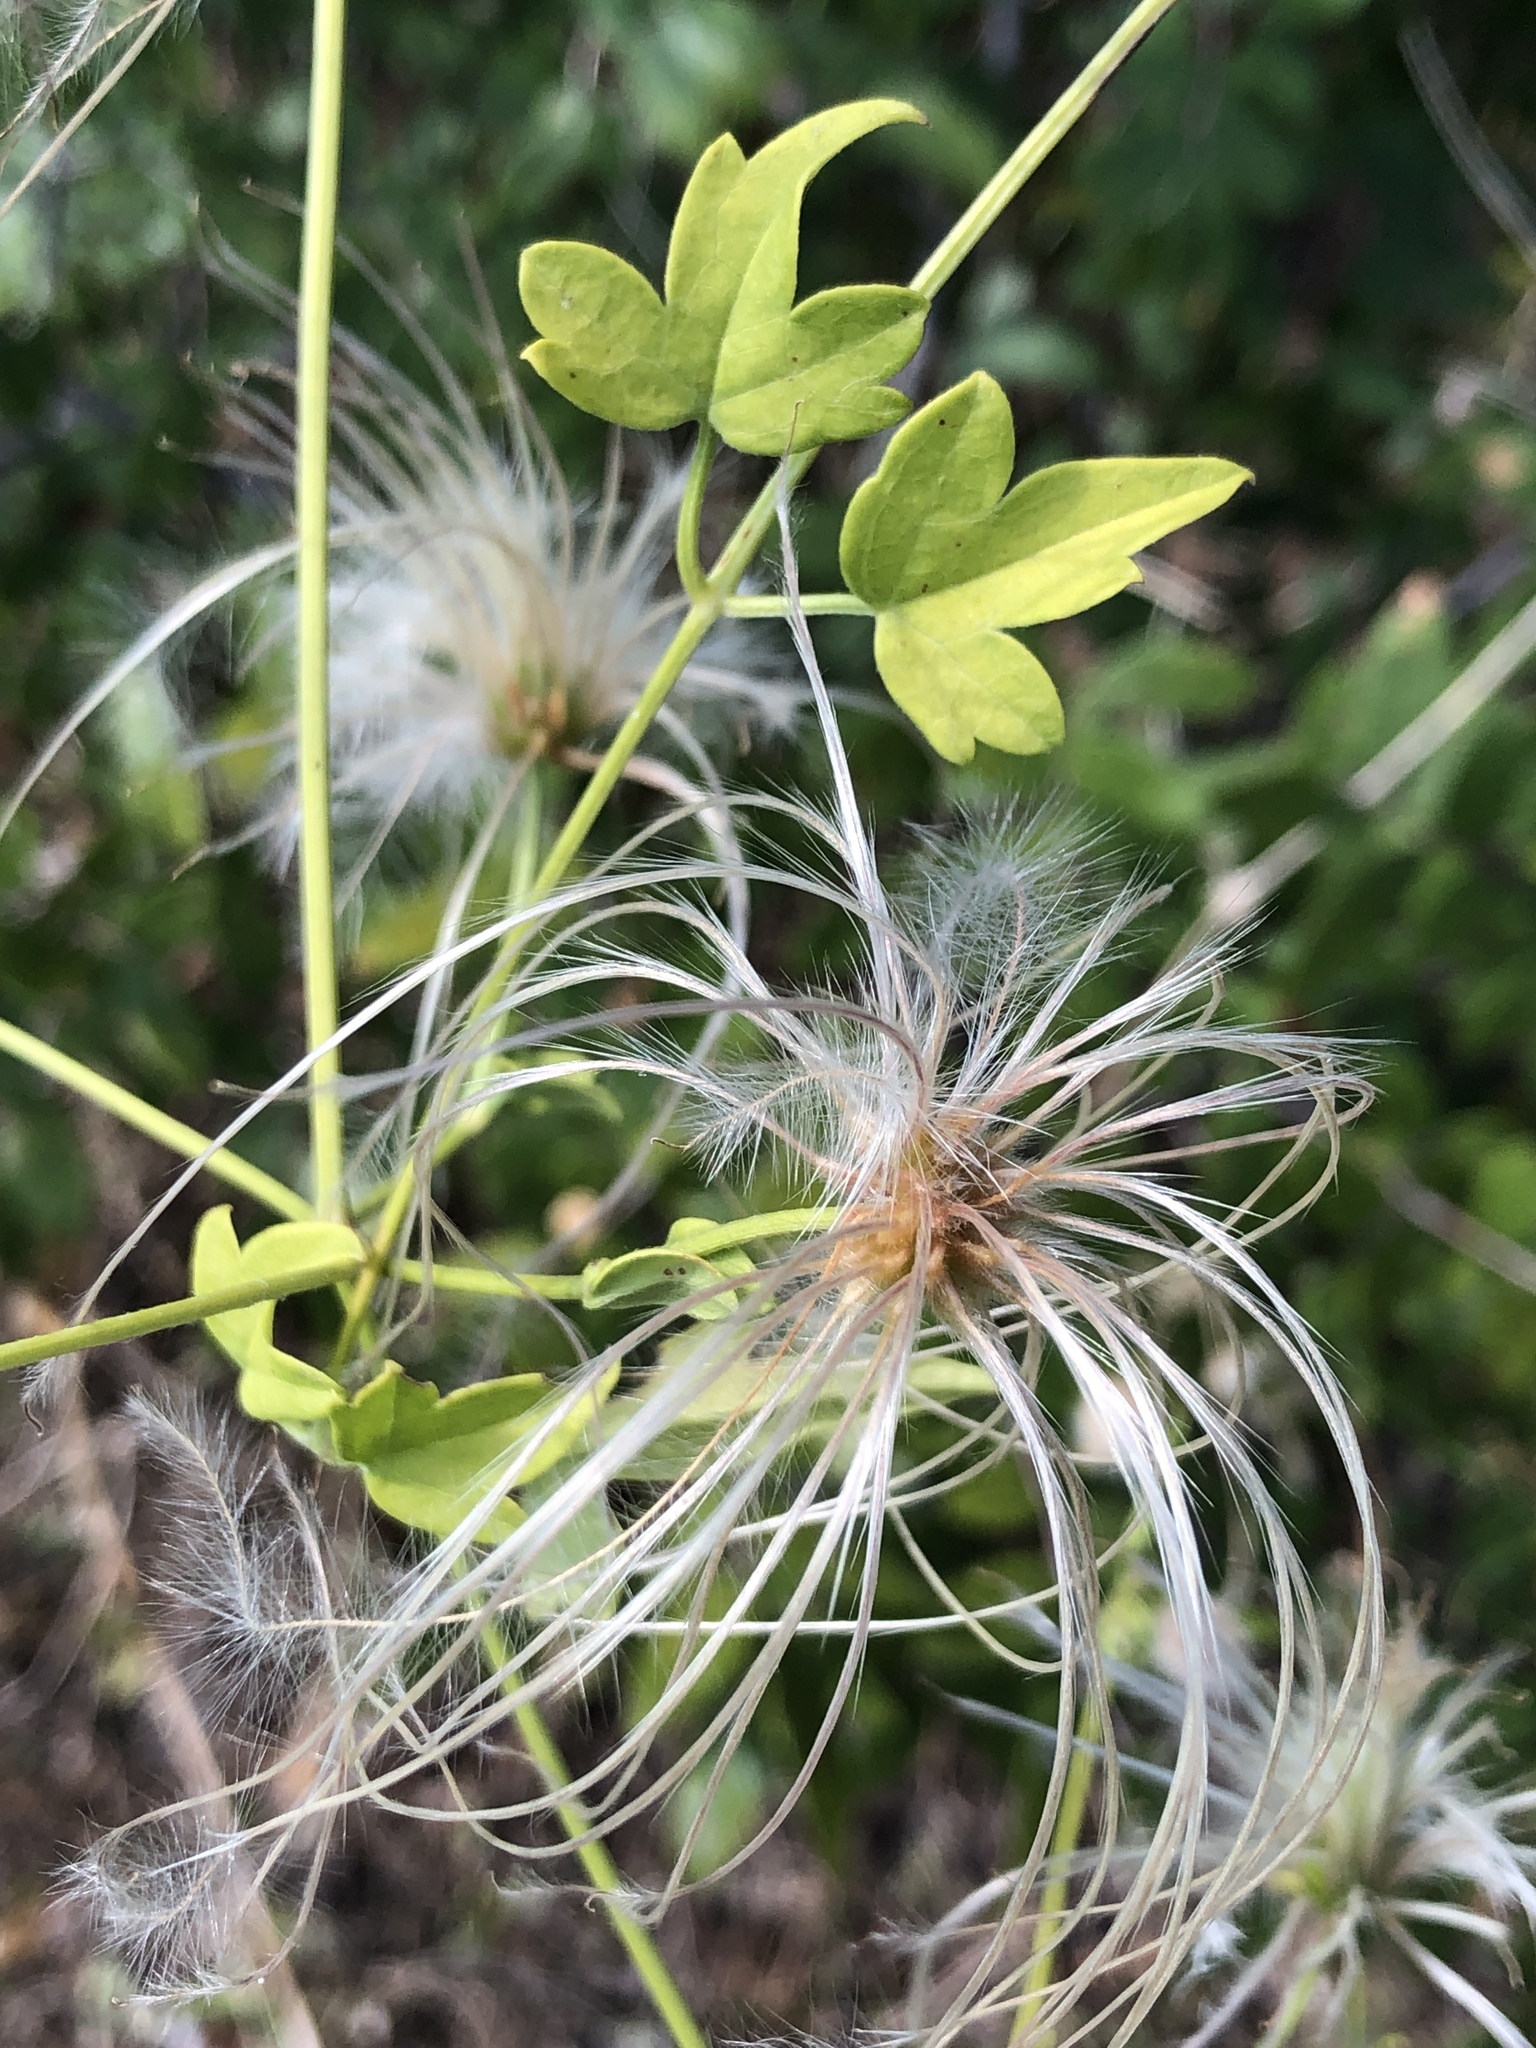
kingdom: Plantae
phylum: Tracheophyta
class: Magnoliopsida
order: Ranunculales
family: Ranunculaceae
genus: Clematis
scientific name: Clematis drummondii
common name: Texas virgin's bower
